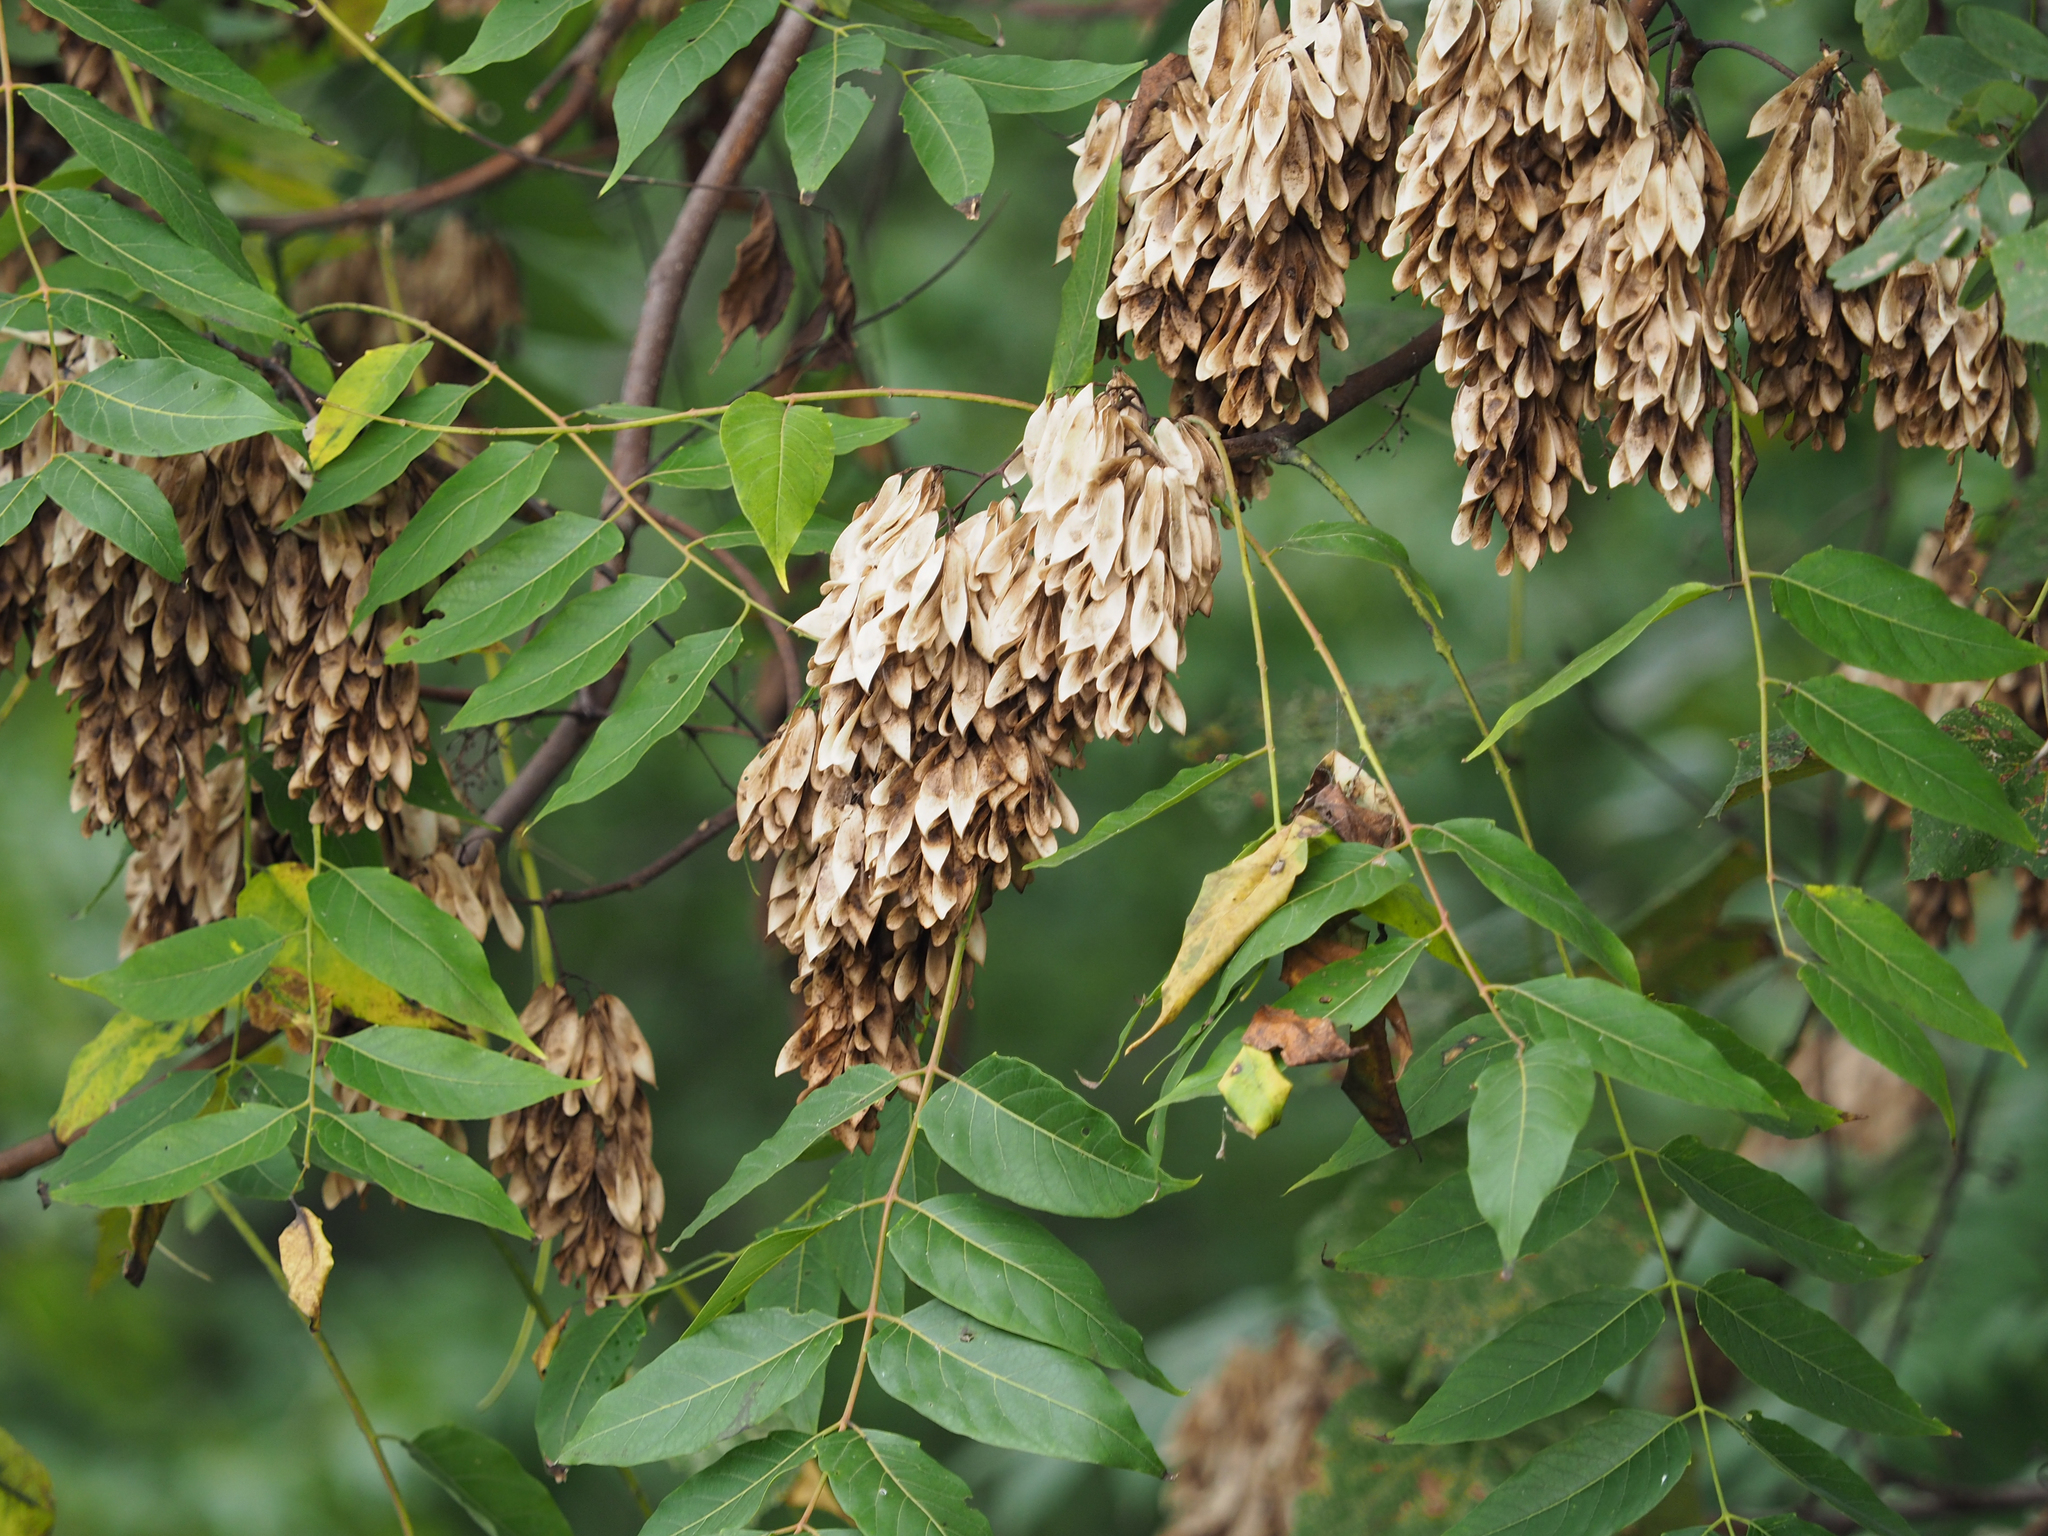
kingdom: Plantae
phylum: Tracheophyta
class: Magnoliopsida
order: Sapindales
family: Simaroubaceae
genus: Ailanthus
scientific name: Ailanthus altissima
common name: Tree-of-heaven
